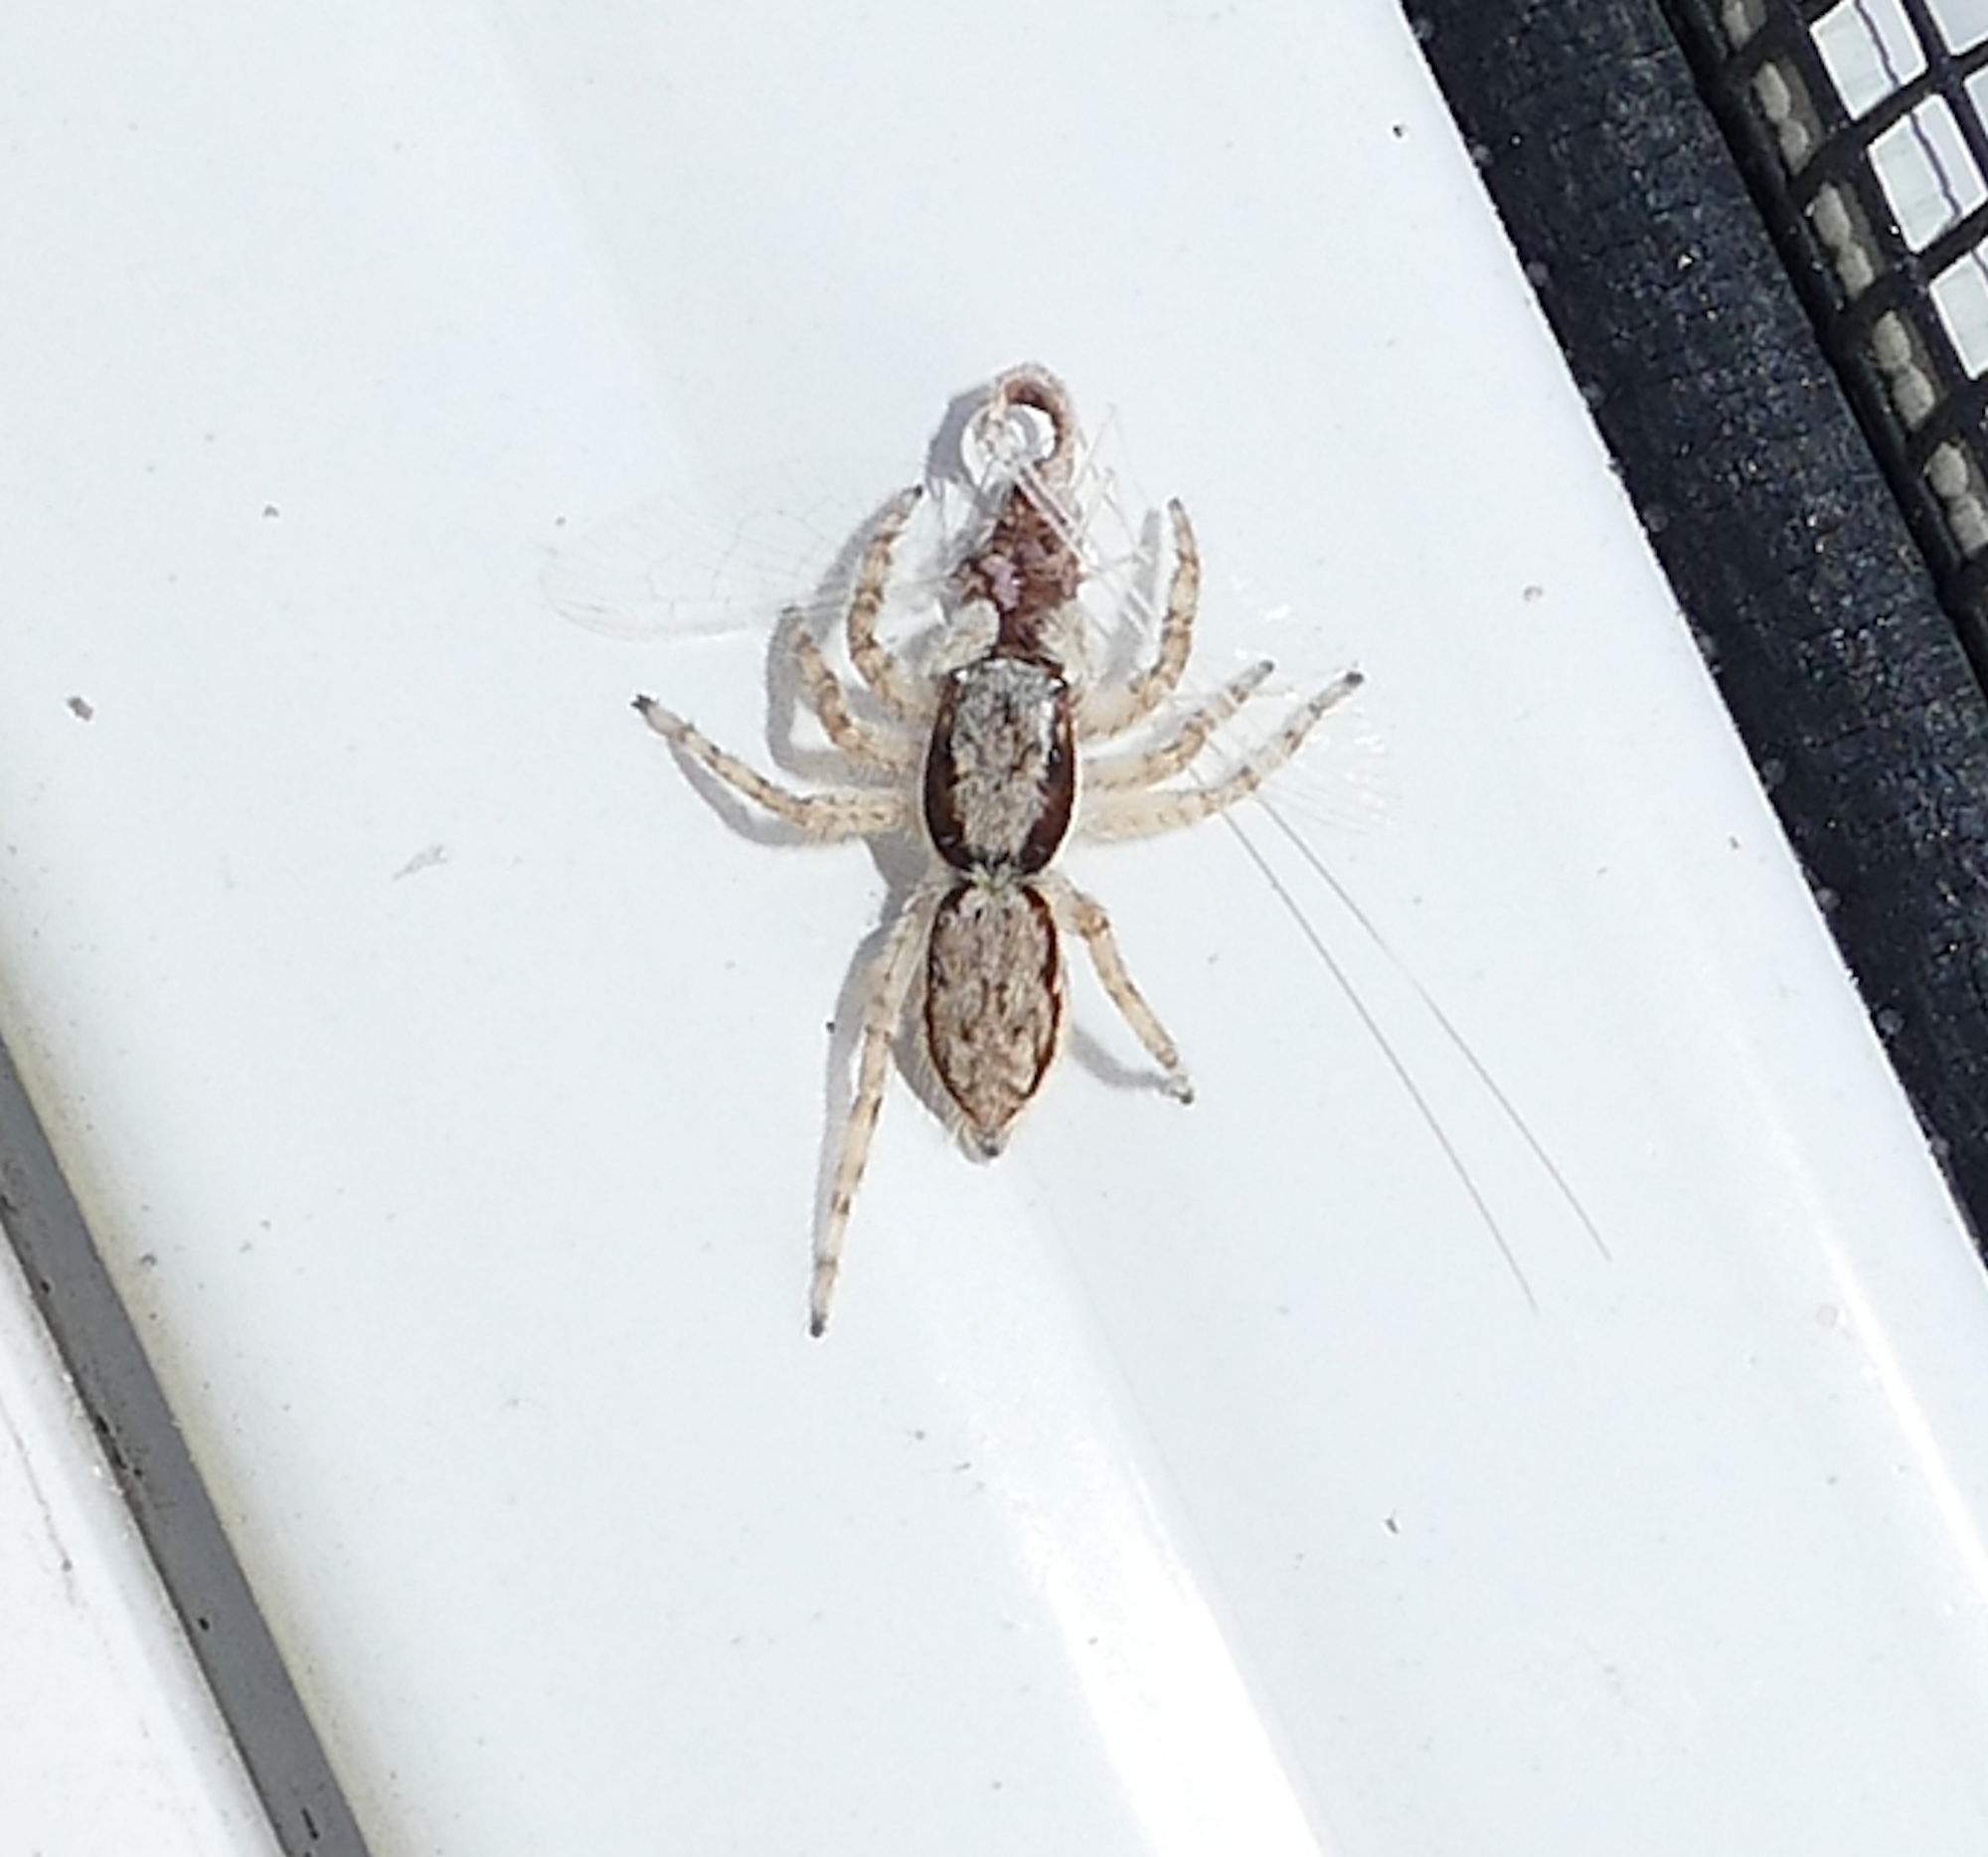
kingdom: Animalia
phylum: Arthropoda
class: Arachnida
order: Araneae
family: Salticidae
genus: Menemerus
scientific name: Menemerus bivittatus
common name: Gray wall jumper
